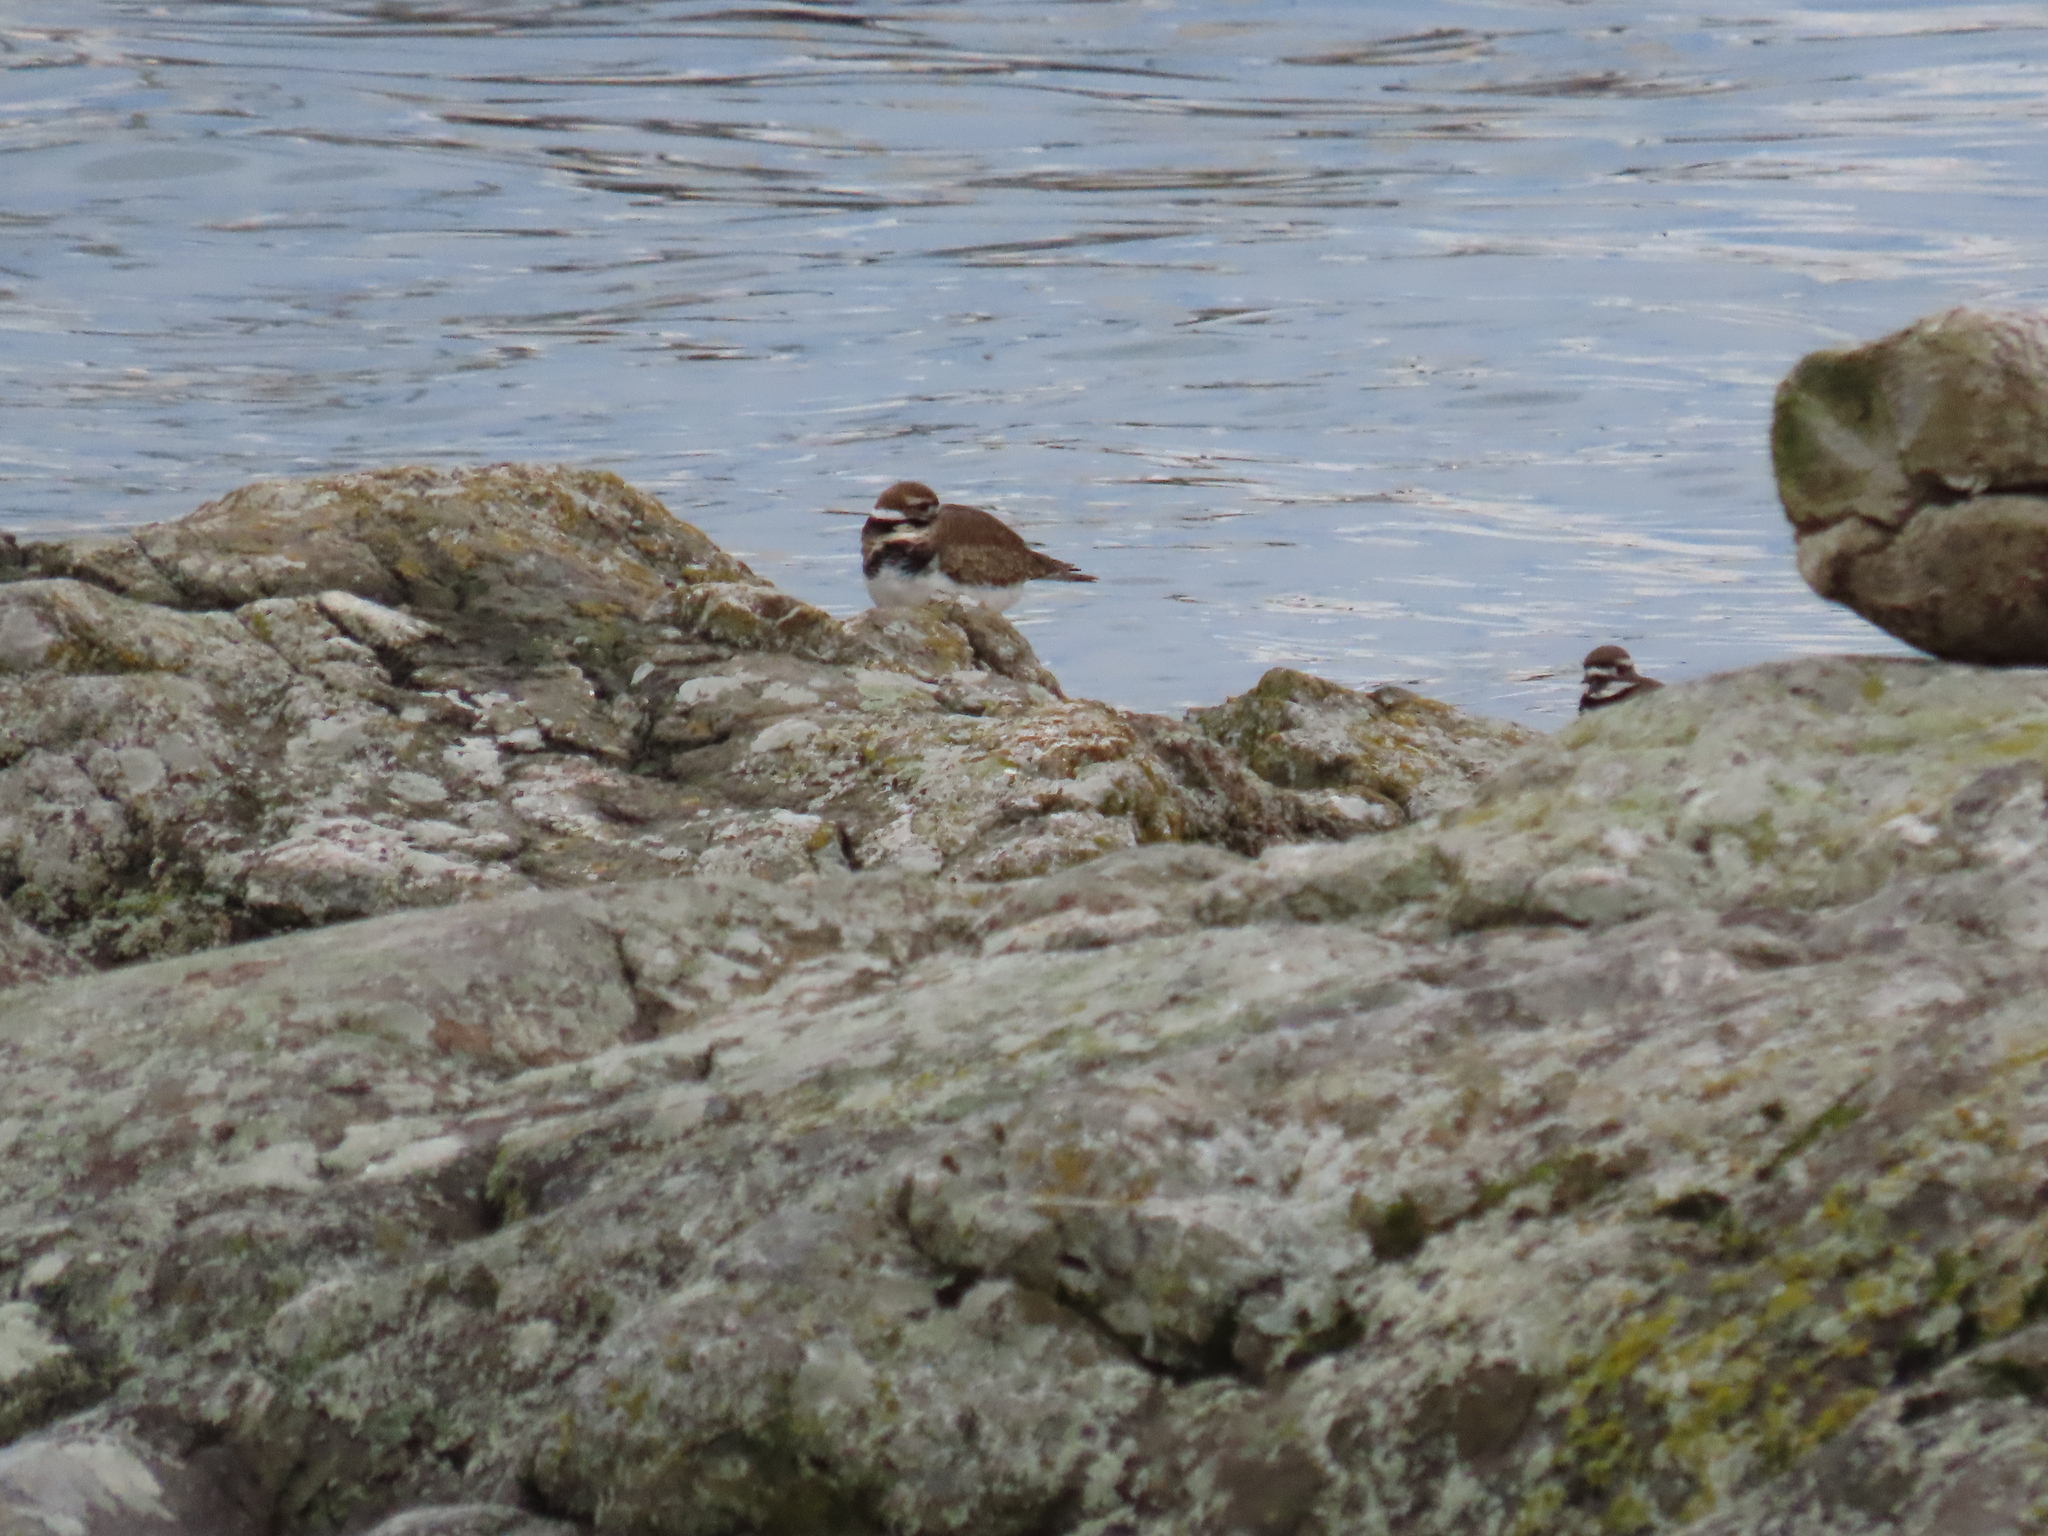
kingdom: Animalia
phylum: Chordata
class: Aves
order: Charadriiformes
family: Charadriidae
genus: Charadrius
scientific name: Charadrius vociferus
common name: Killdeer
